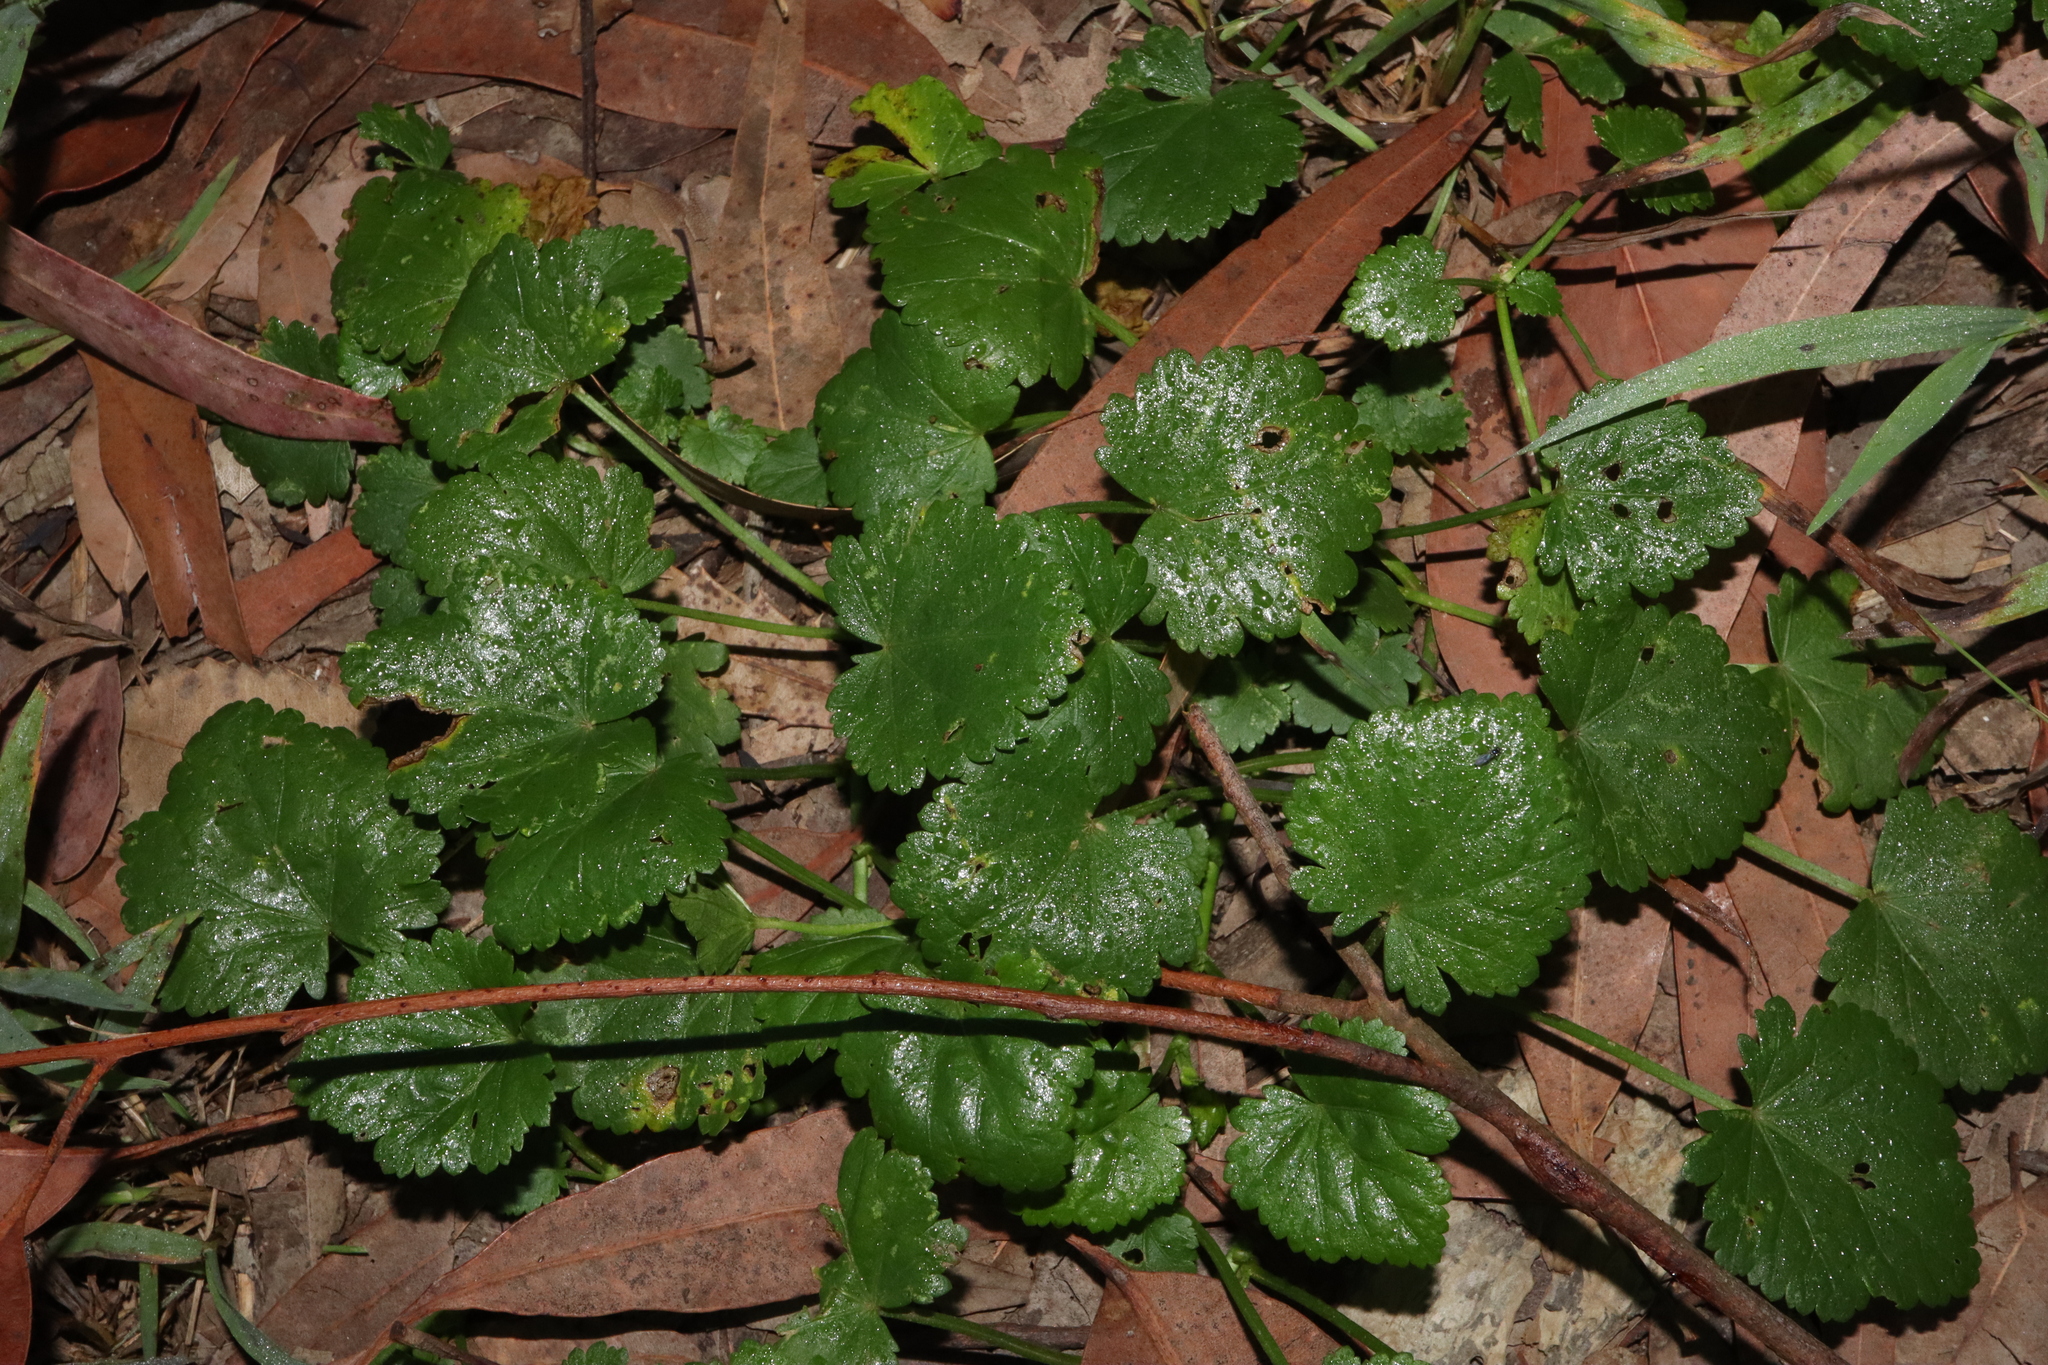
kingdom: Plantae
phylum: Tracheophyta
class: Magnoliopsida
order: Malvales
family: Malvaceae
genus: Modiola
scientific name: Modiola caroliniana
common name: Carolina bristlemallow
